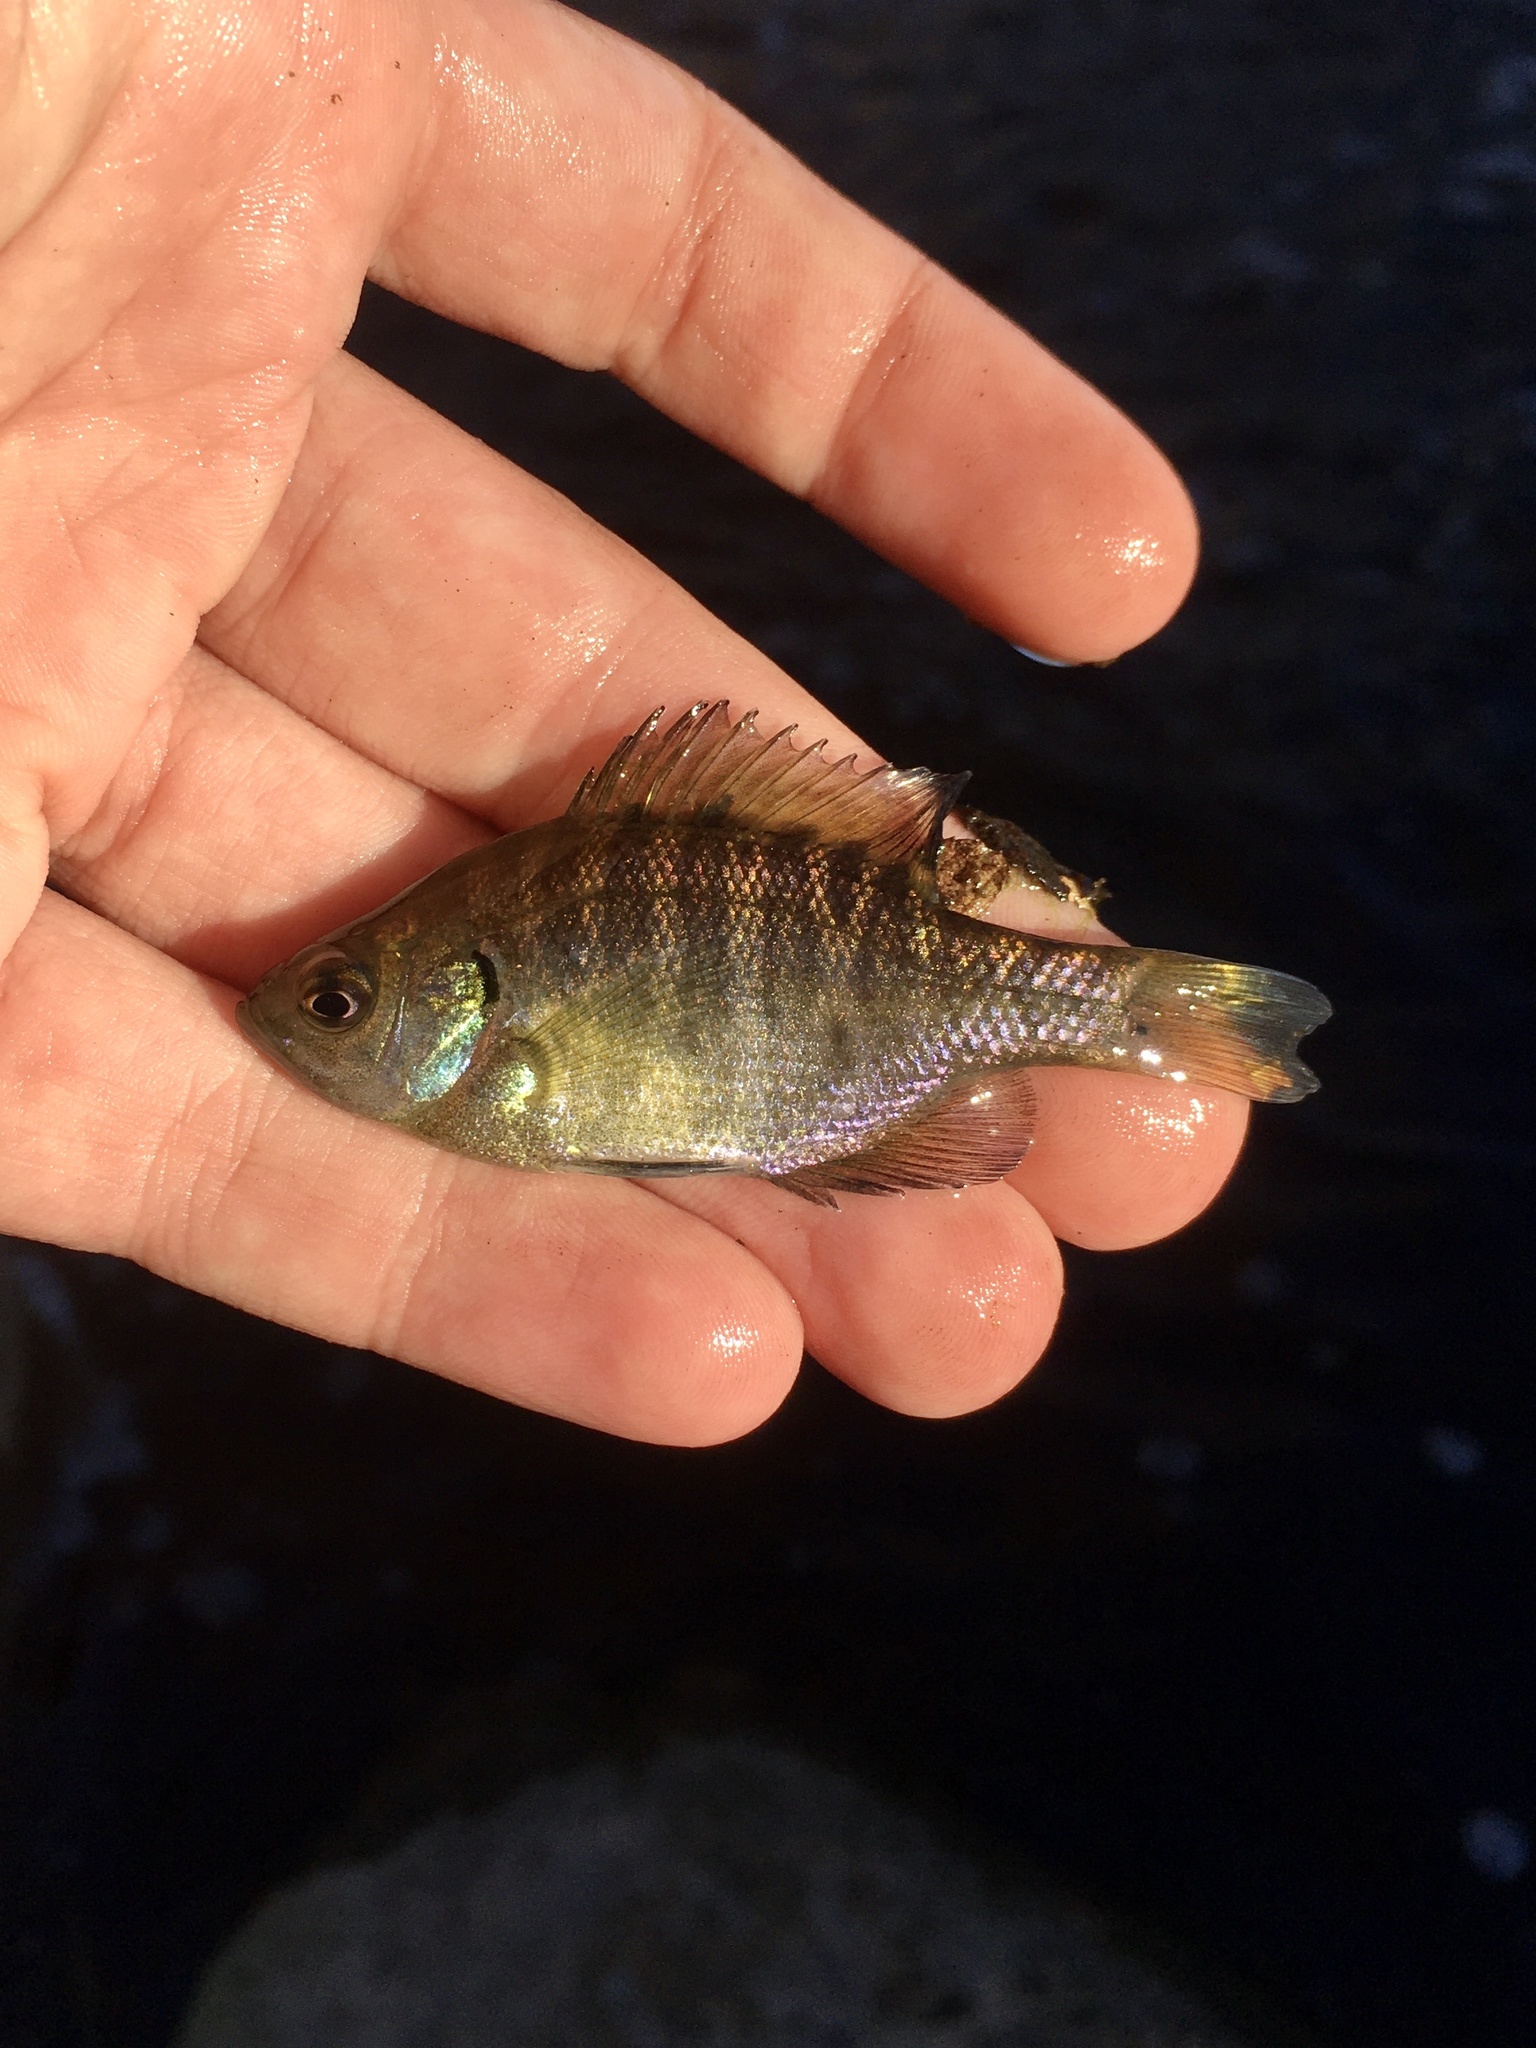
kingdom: Animalia
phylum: Chordata
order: Perciformes
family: Centrarchidae
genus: Lepomis
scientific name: Lepomis macrochirus
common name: Bluegill
